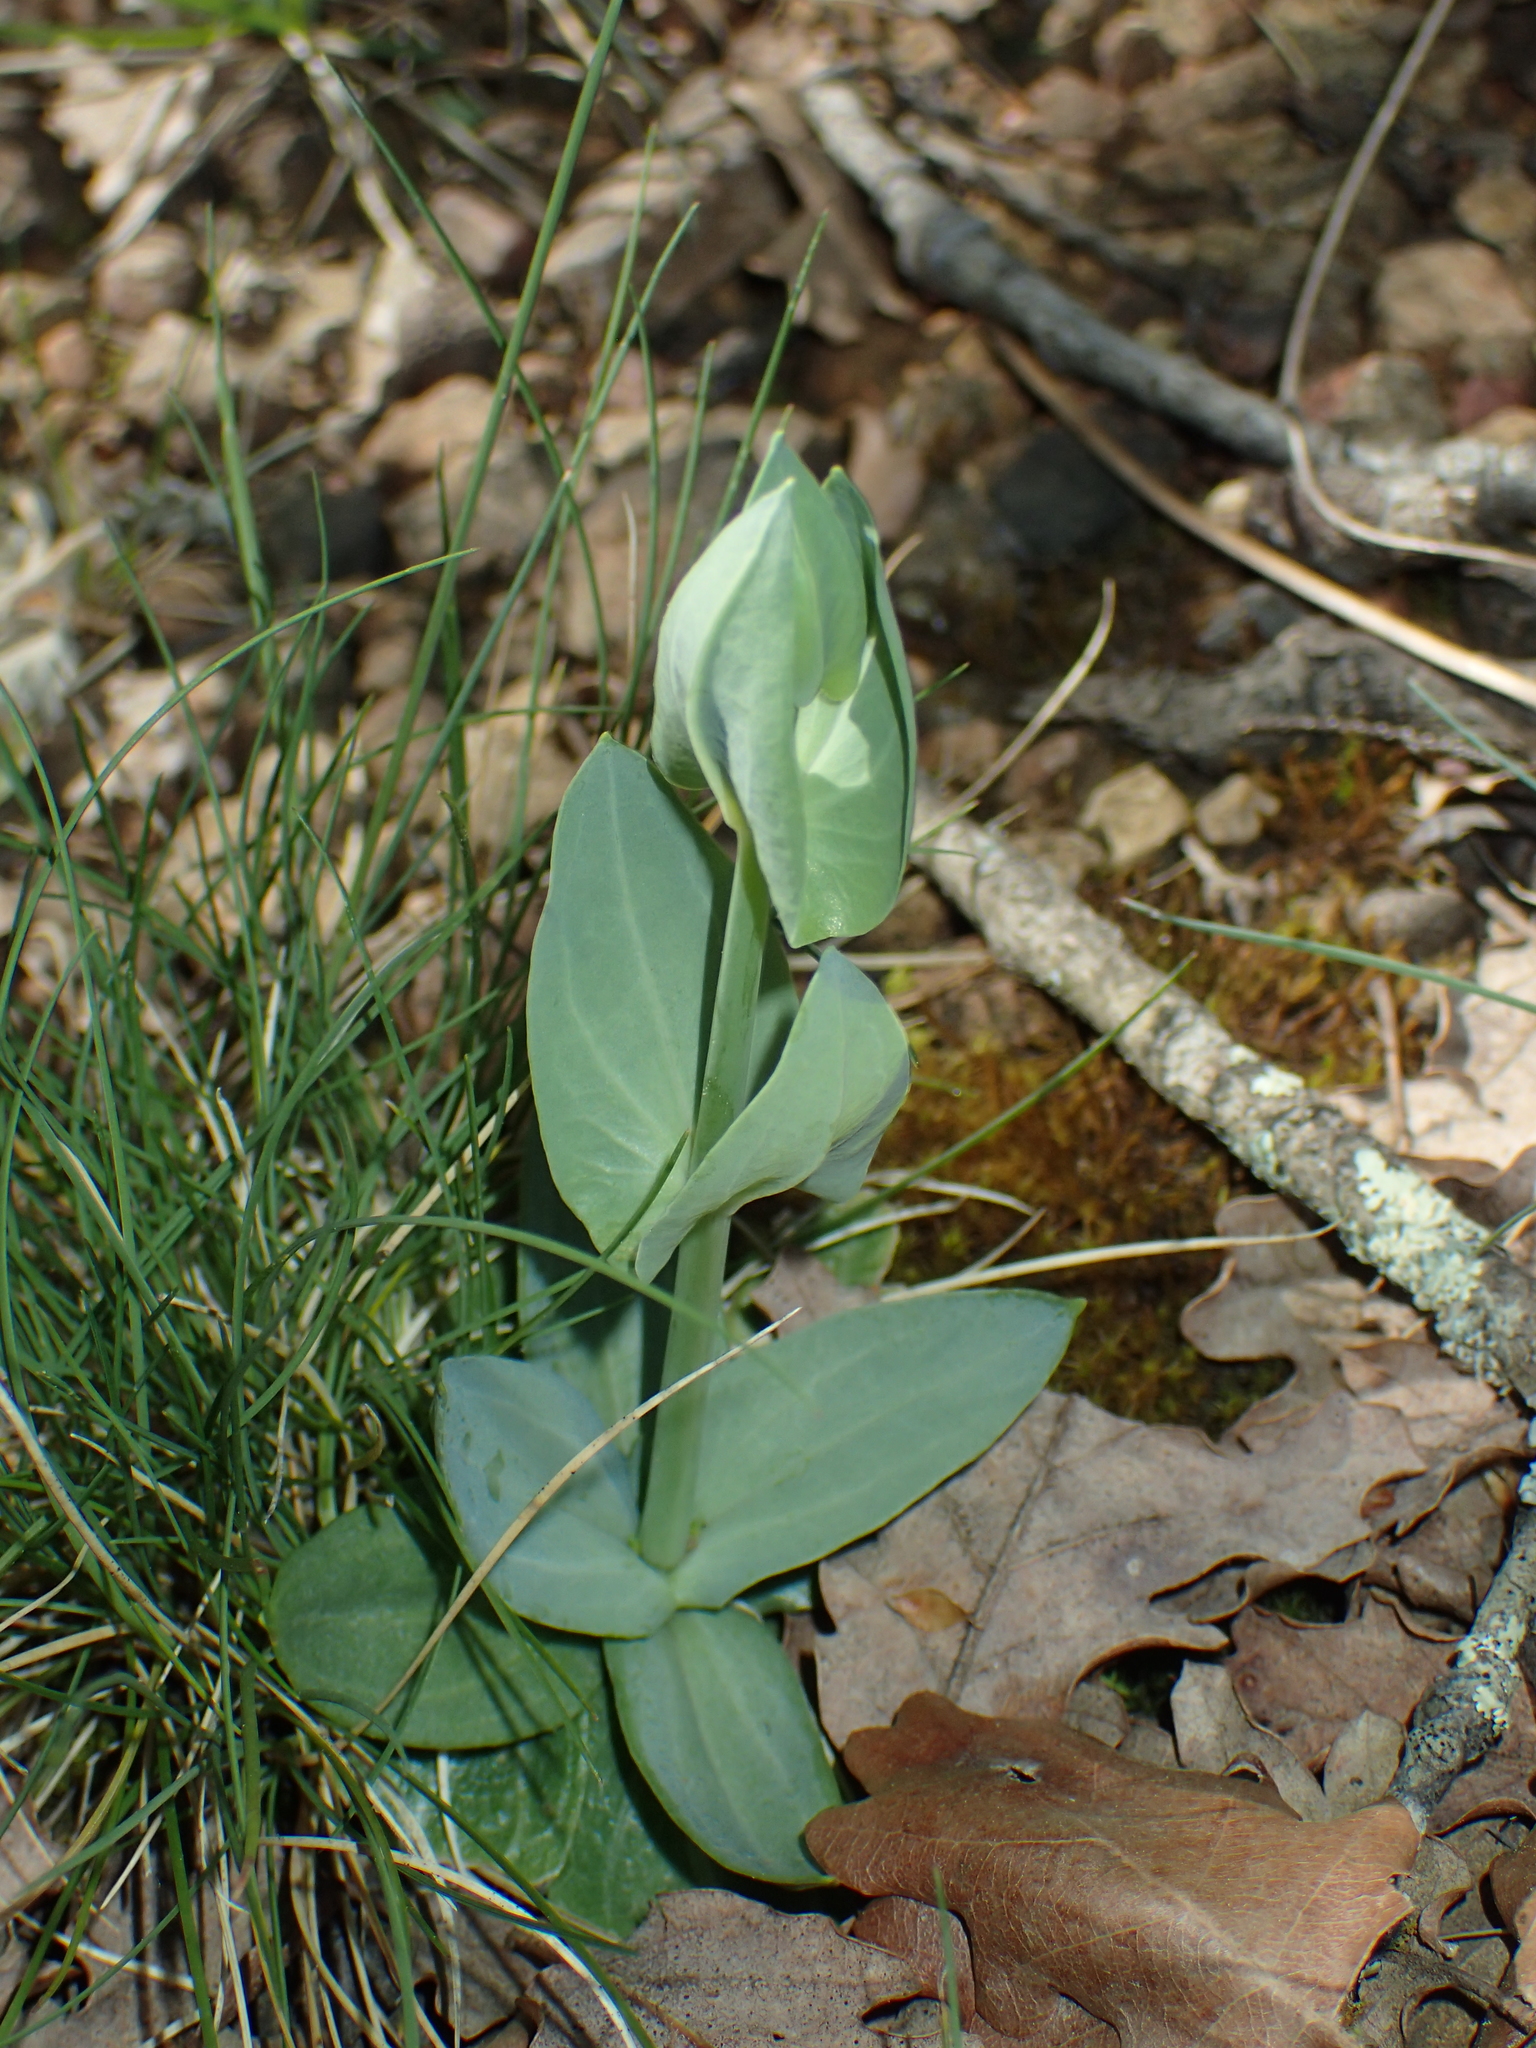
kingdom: Plantae
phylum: Tracheophyta
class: Magnoliopsida
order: Gentianales
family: Gentianaceae
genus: Blackstonia
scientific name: Blackstonia perfoliata
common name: Yellow-wort
